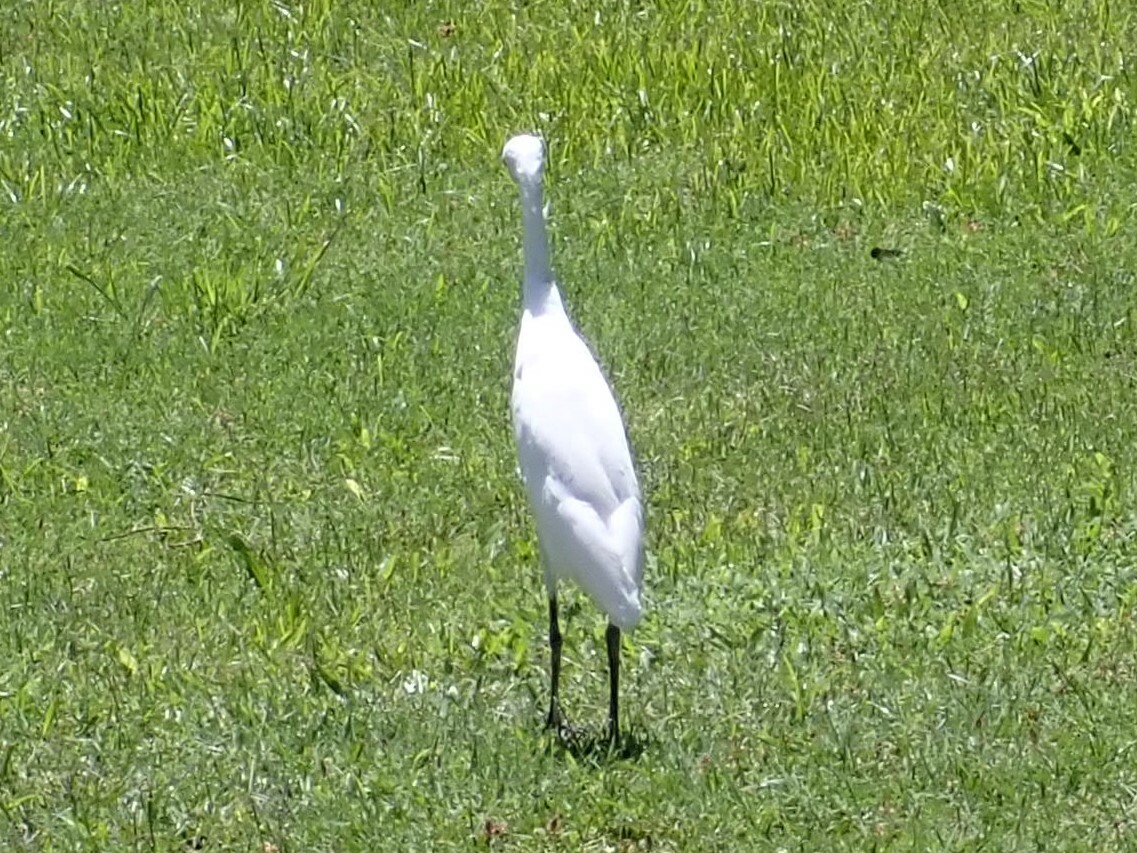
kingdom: Animalia
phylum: Chordata
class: Aves
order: Pelecaniformes
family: Ardeidae
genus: Bubulcus
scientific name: Bubulcus ibis
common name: Cattle egret
